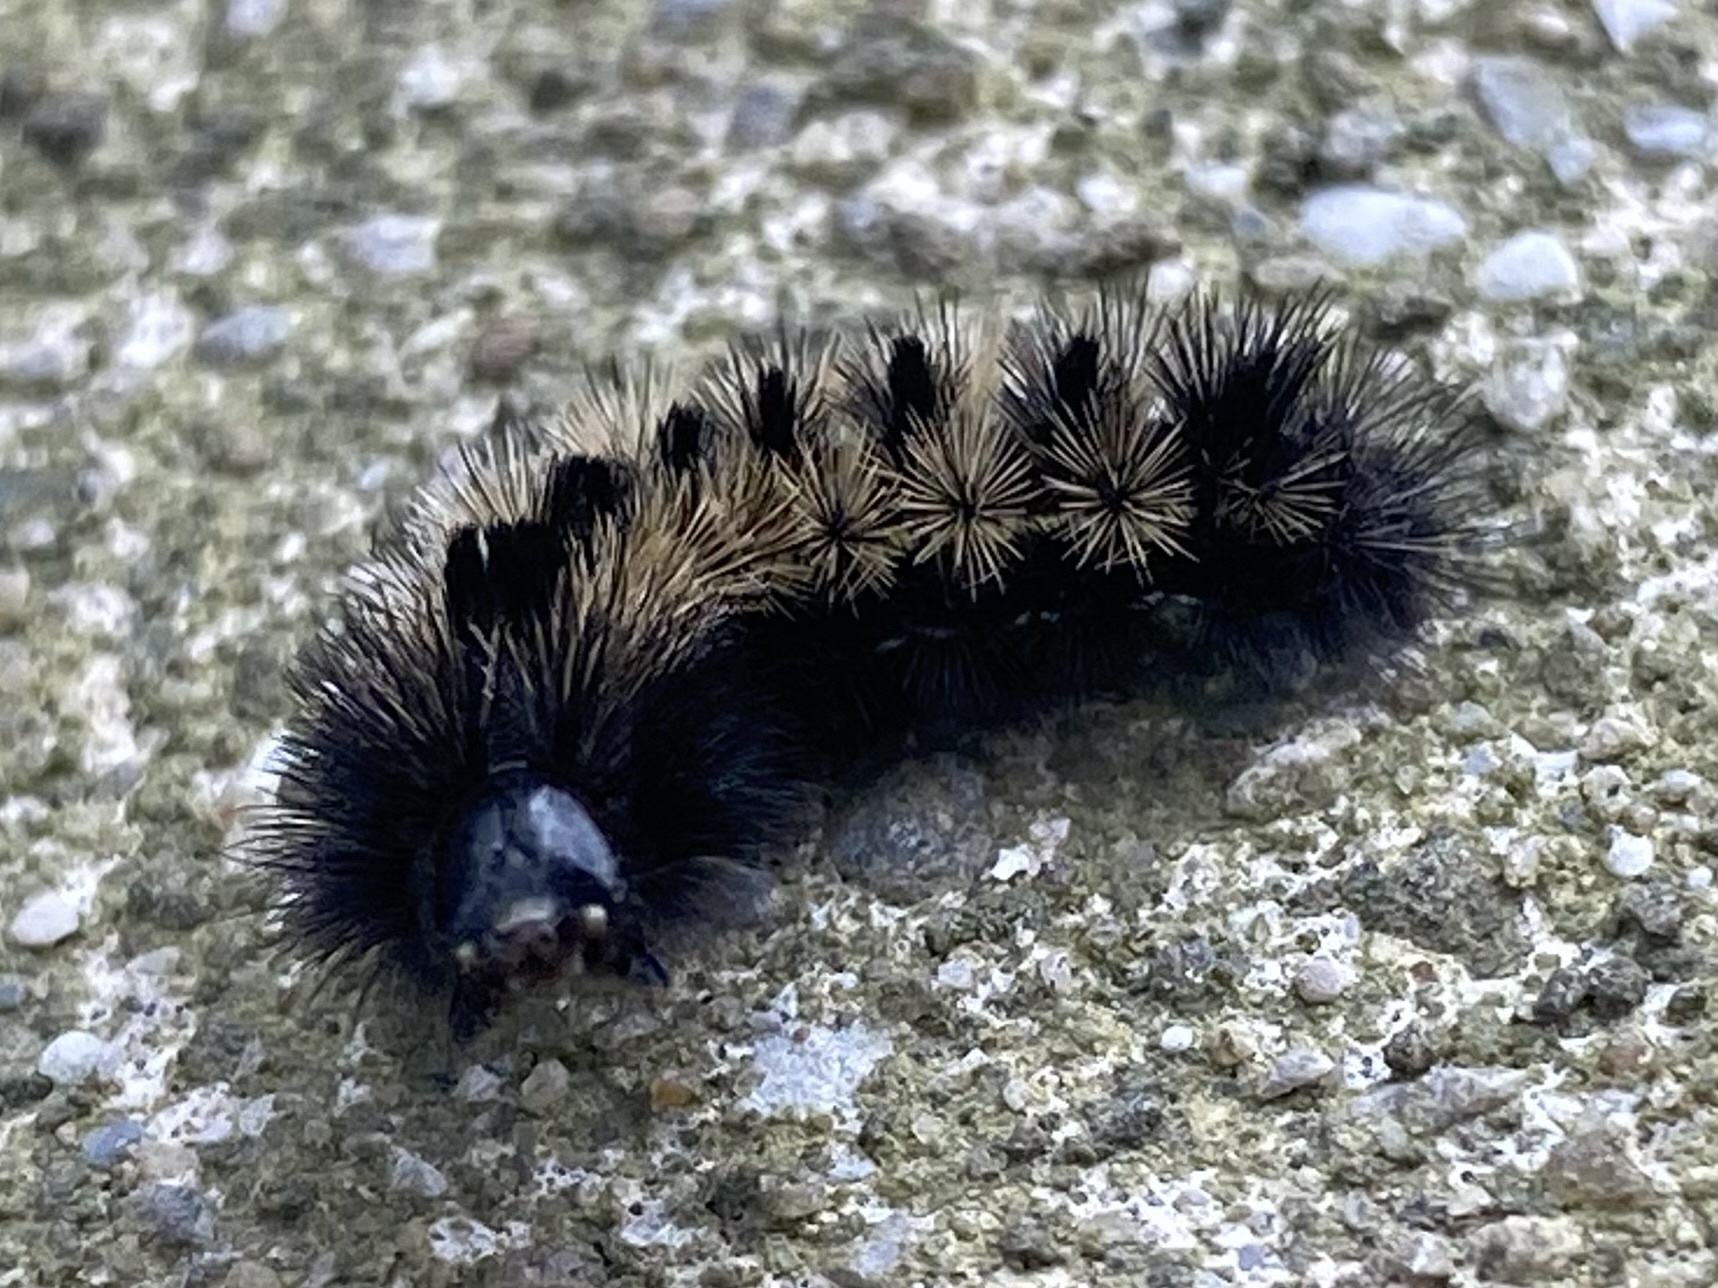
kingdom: Animalia
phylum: Arthropoda
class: Insecta
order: Lepidoptera
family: Erebidae
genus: Ctenucha
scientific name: Ctenucha virginica
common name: Virginia ctenucha moth
